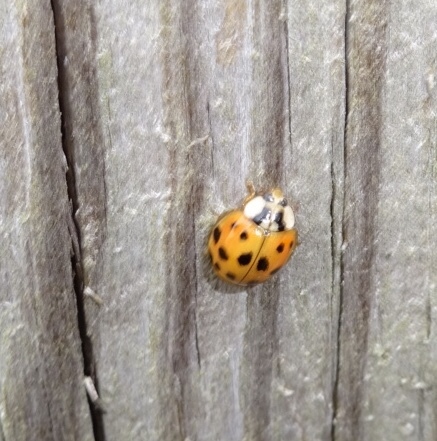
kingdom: Animalia
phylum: Arthropoda
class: Insecta
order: Coleoptera
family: Coccinellidae
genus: Harmonia
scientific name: Harmonia axyridis
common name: Harlequin ladybird
